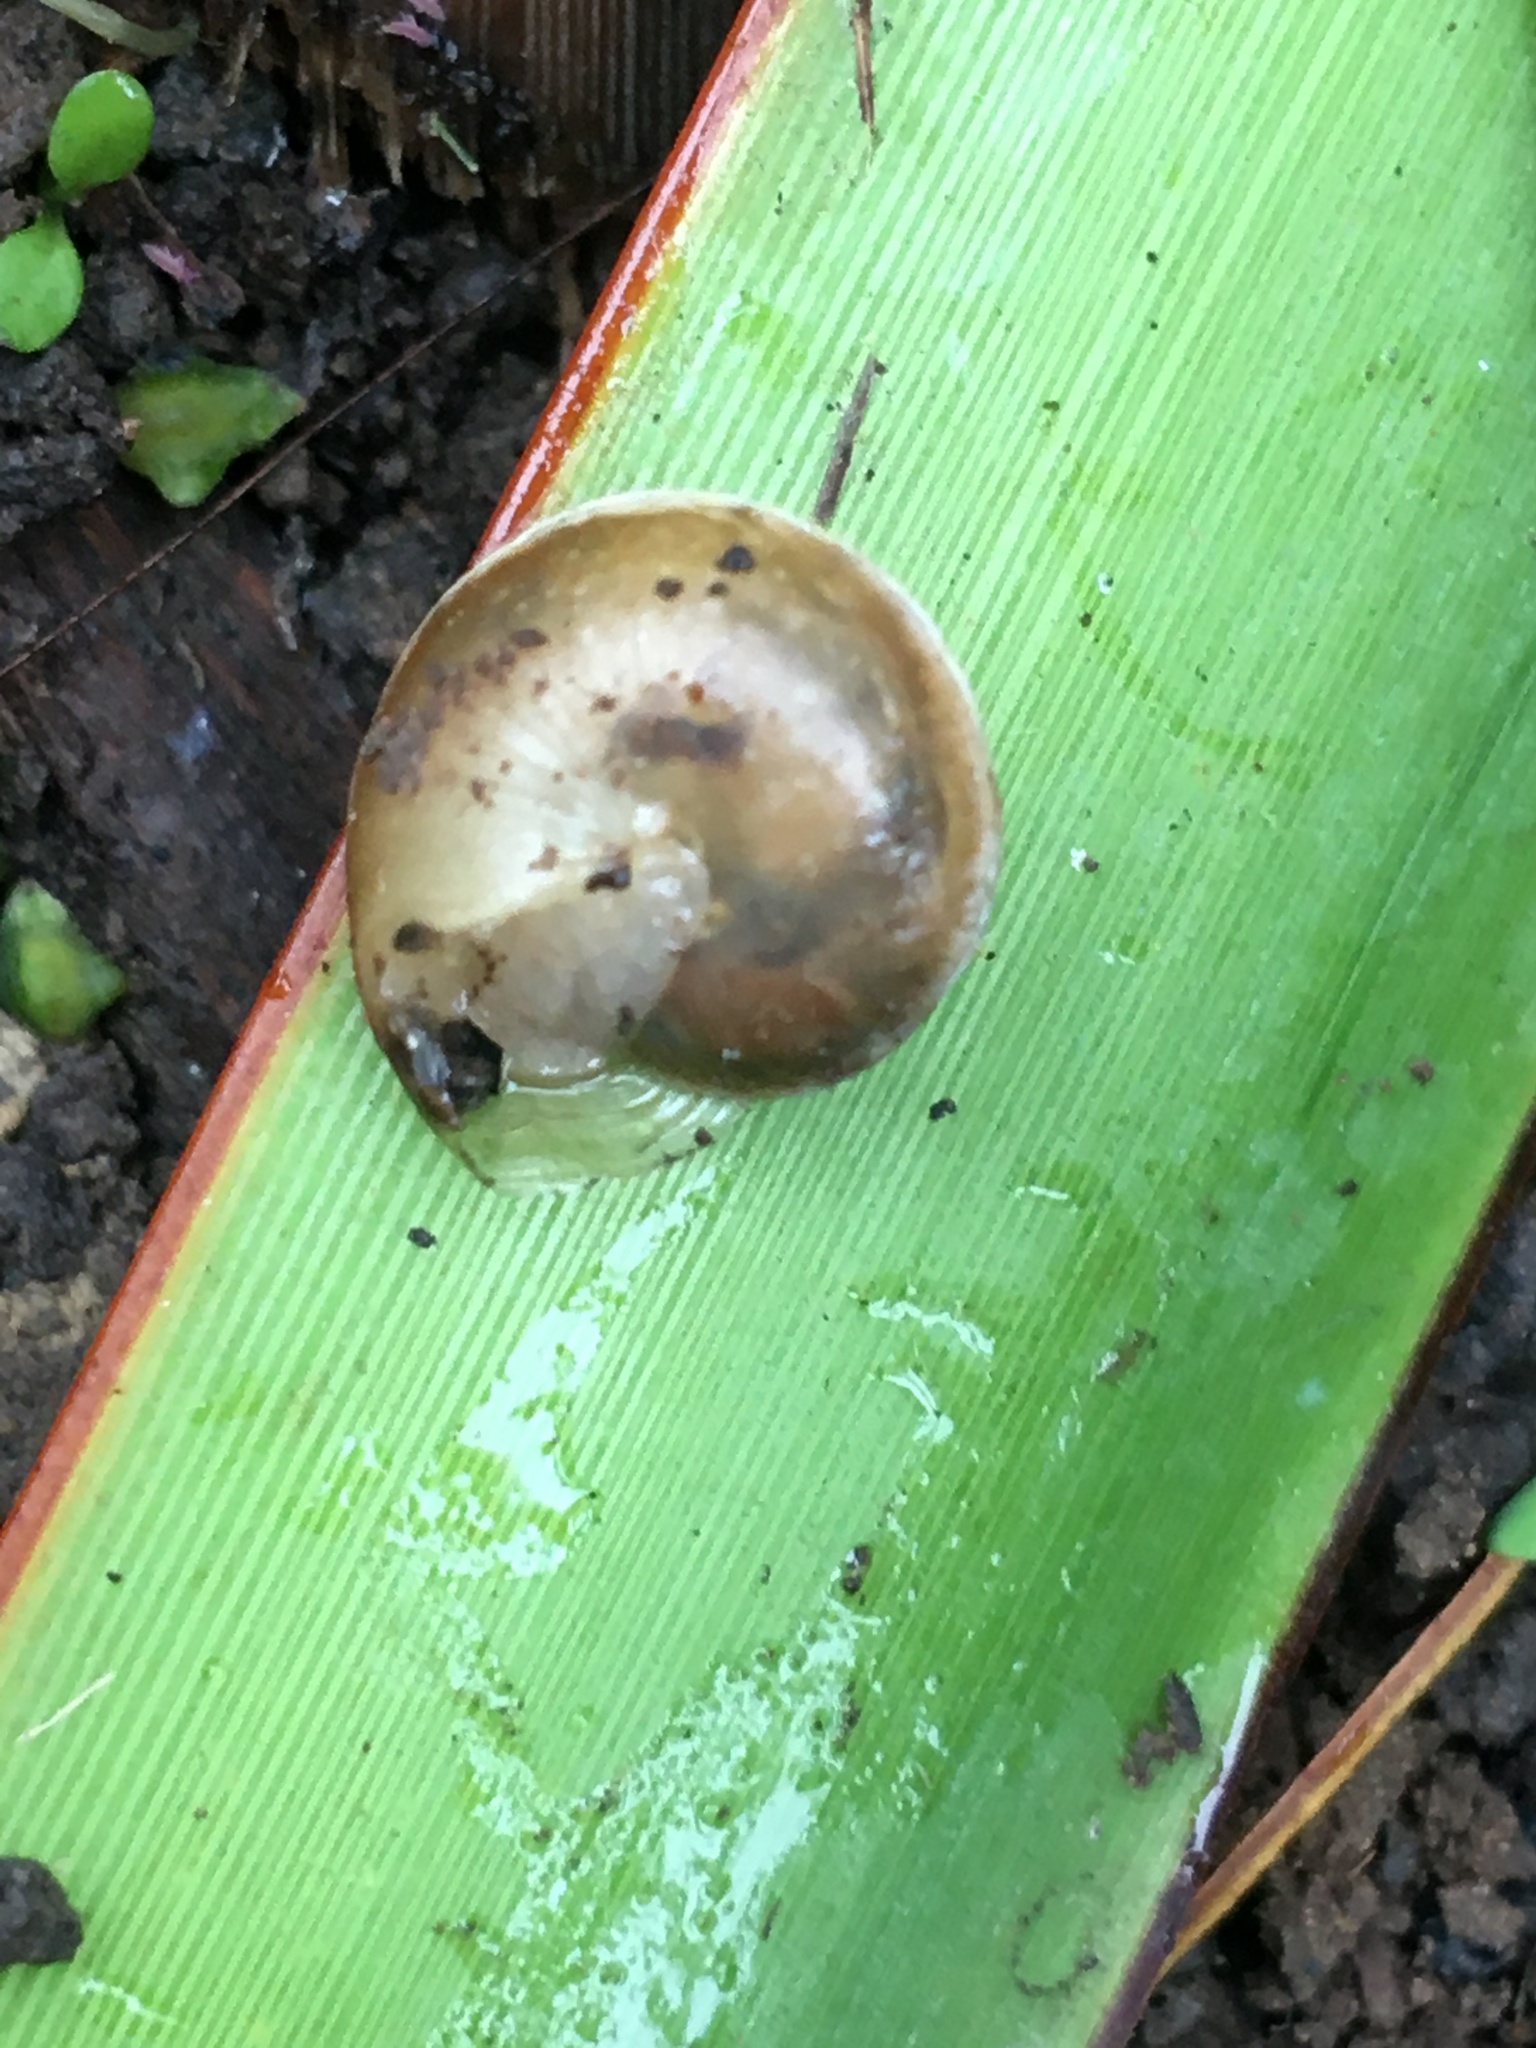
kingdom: Animalia
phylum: Mollusca
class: Gastropoda
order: Stylommatophora
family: Hygromiidae
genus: Hygromia
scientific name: Hygromia cinctella
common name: Girdled snail
